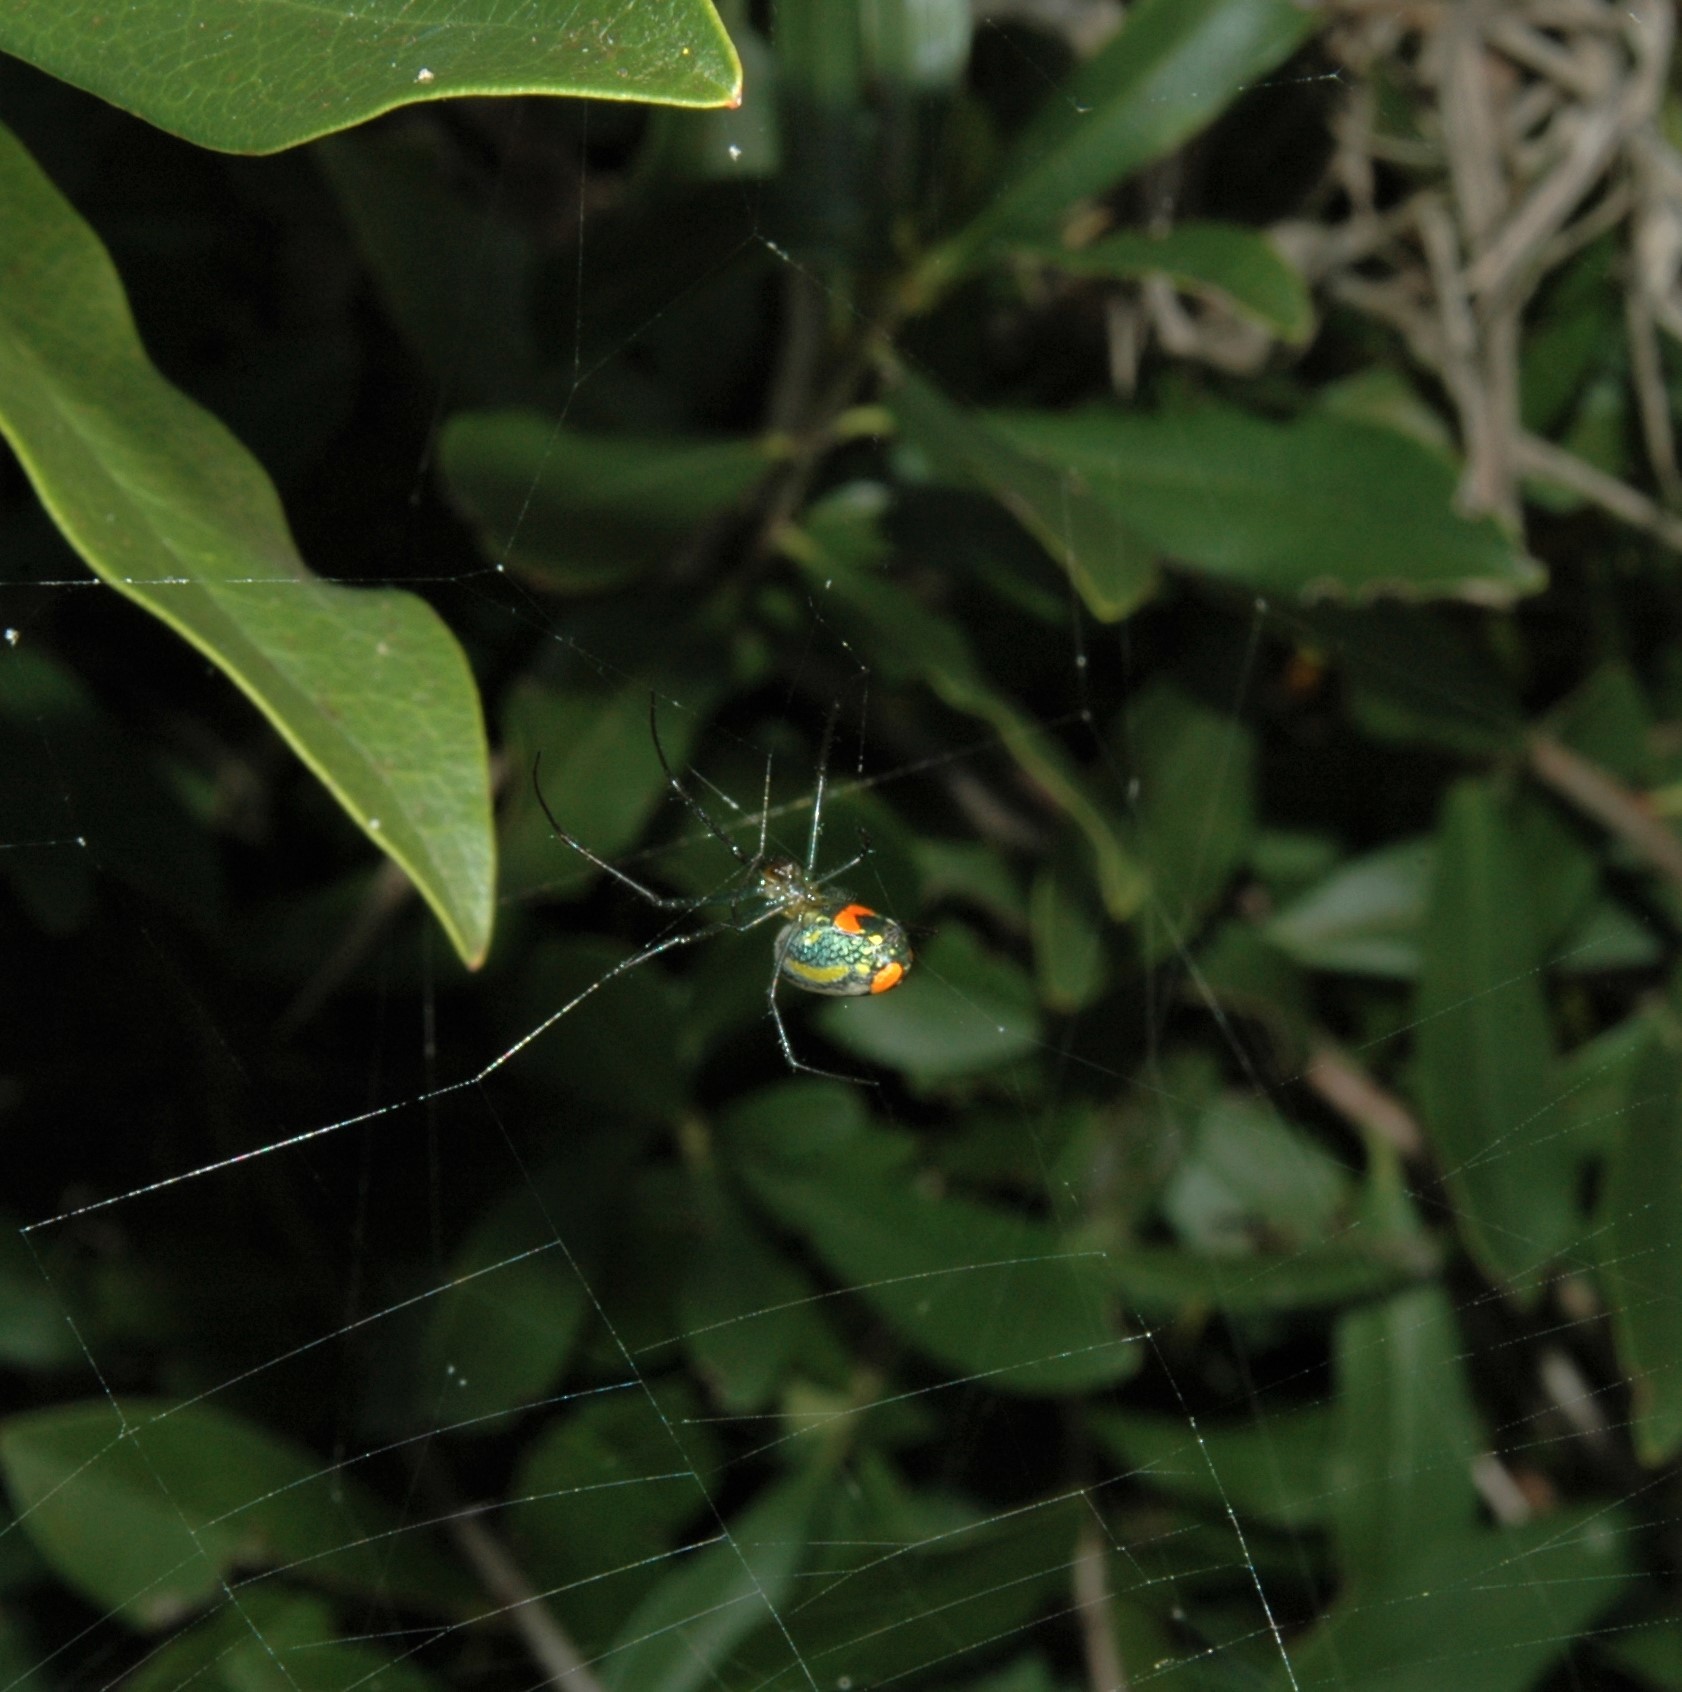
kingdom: Animalia
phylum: Arthropoda
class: Arachnida
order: Araneae
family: Tetragnathidae
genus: Leucauge
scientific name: Leucauge argyrobapta
